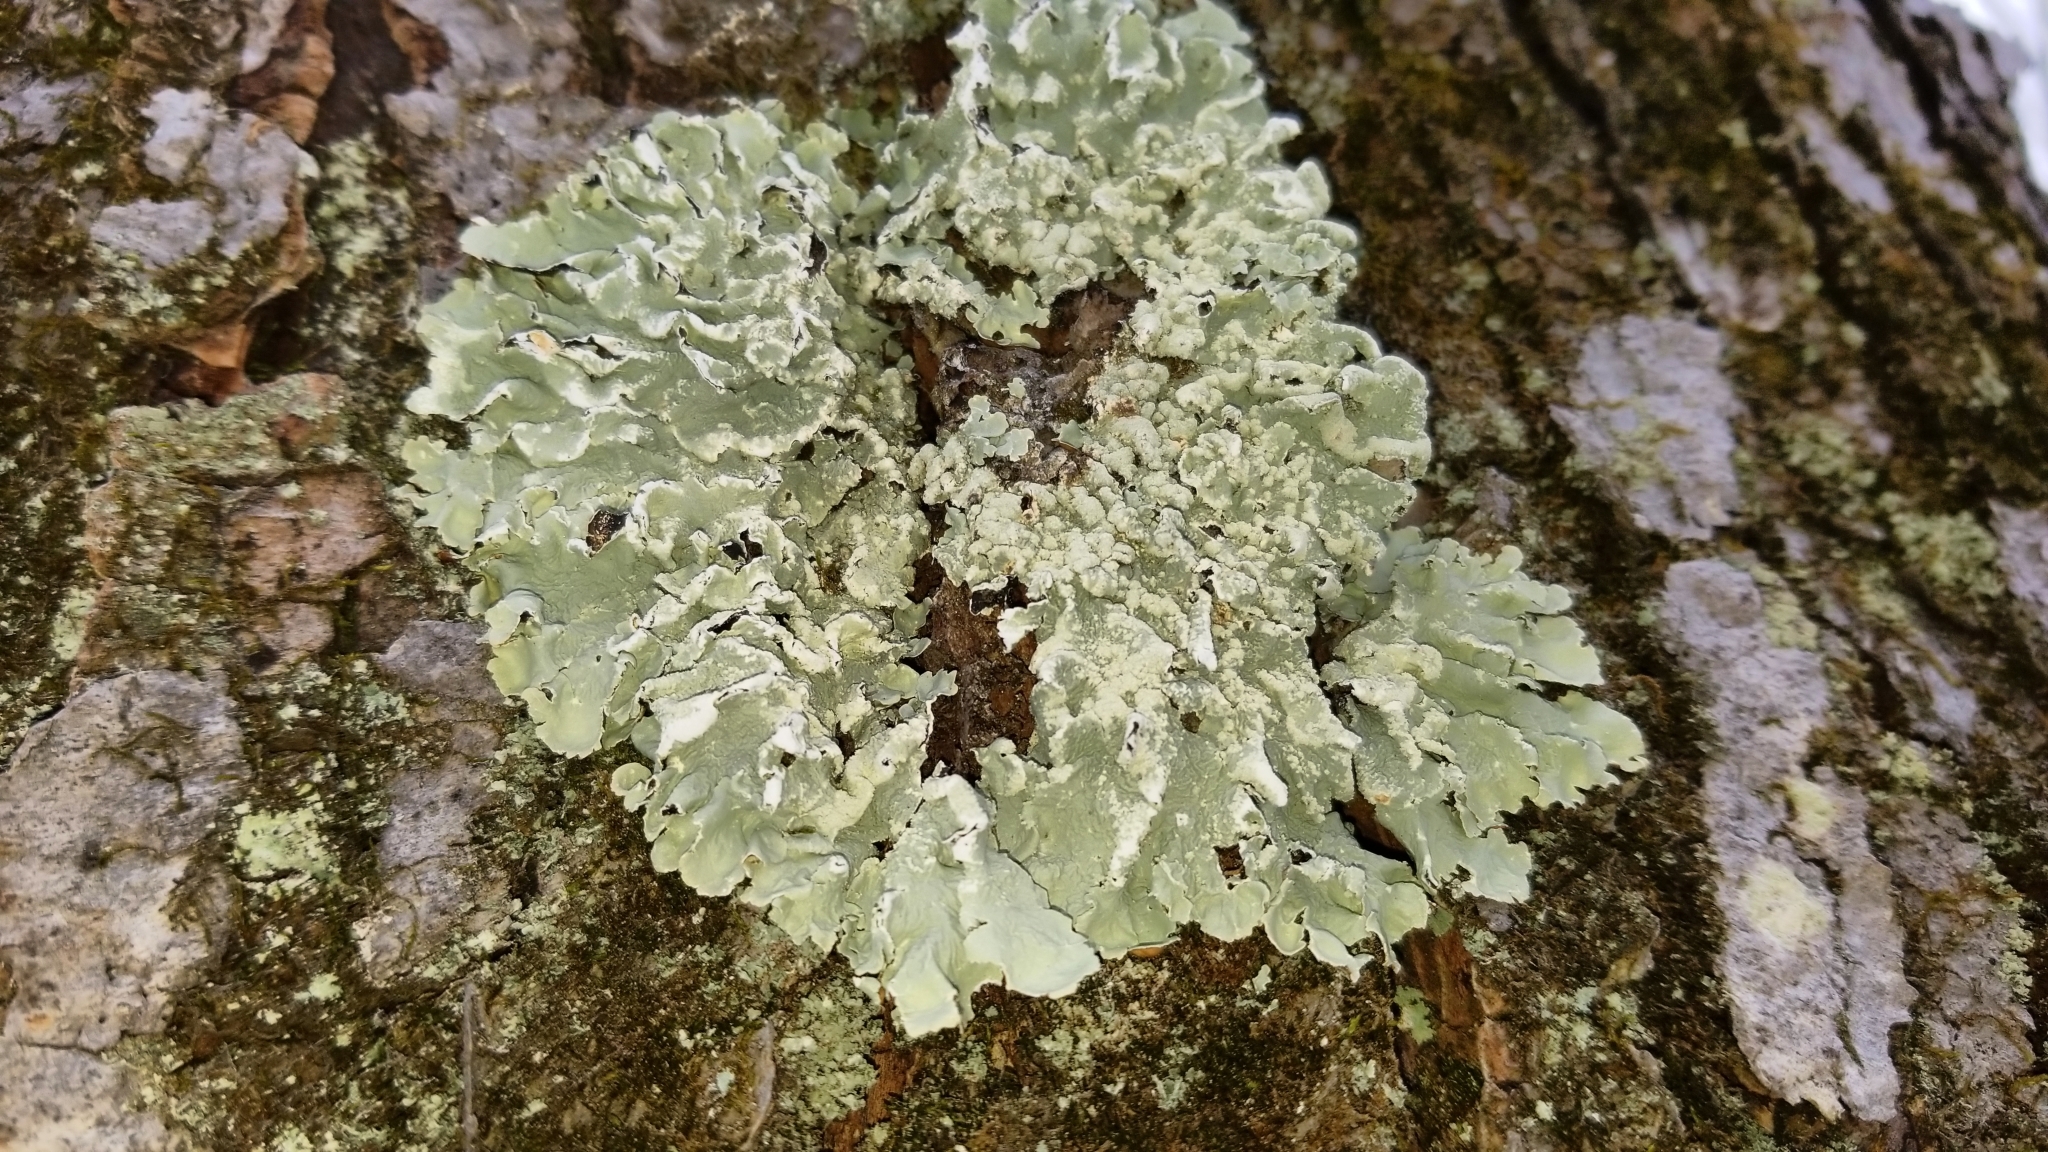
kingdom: Fungi
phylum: Ascomycota
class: Lecanoromycetes
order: Lecanorales
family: Parmeliaceae
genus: Flavopunctelia
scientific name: Flavopunctelia soredica
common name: Powder-edged speckled greenshield
